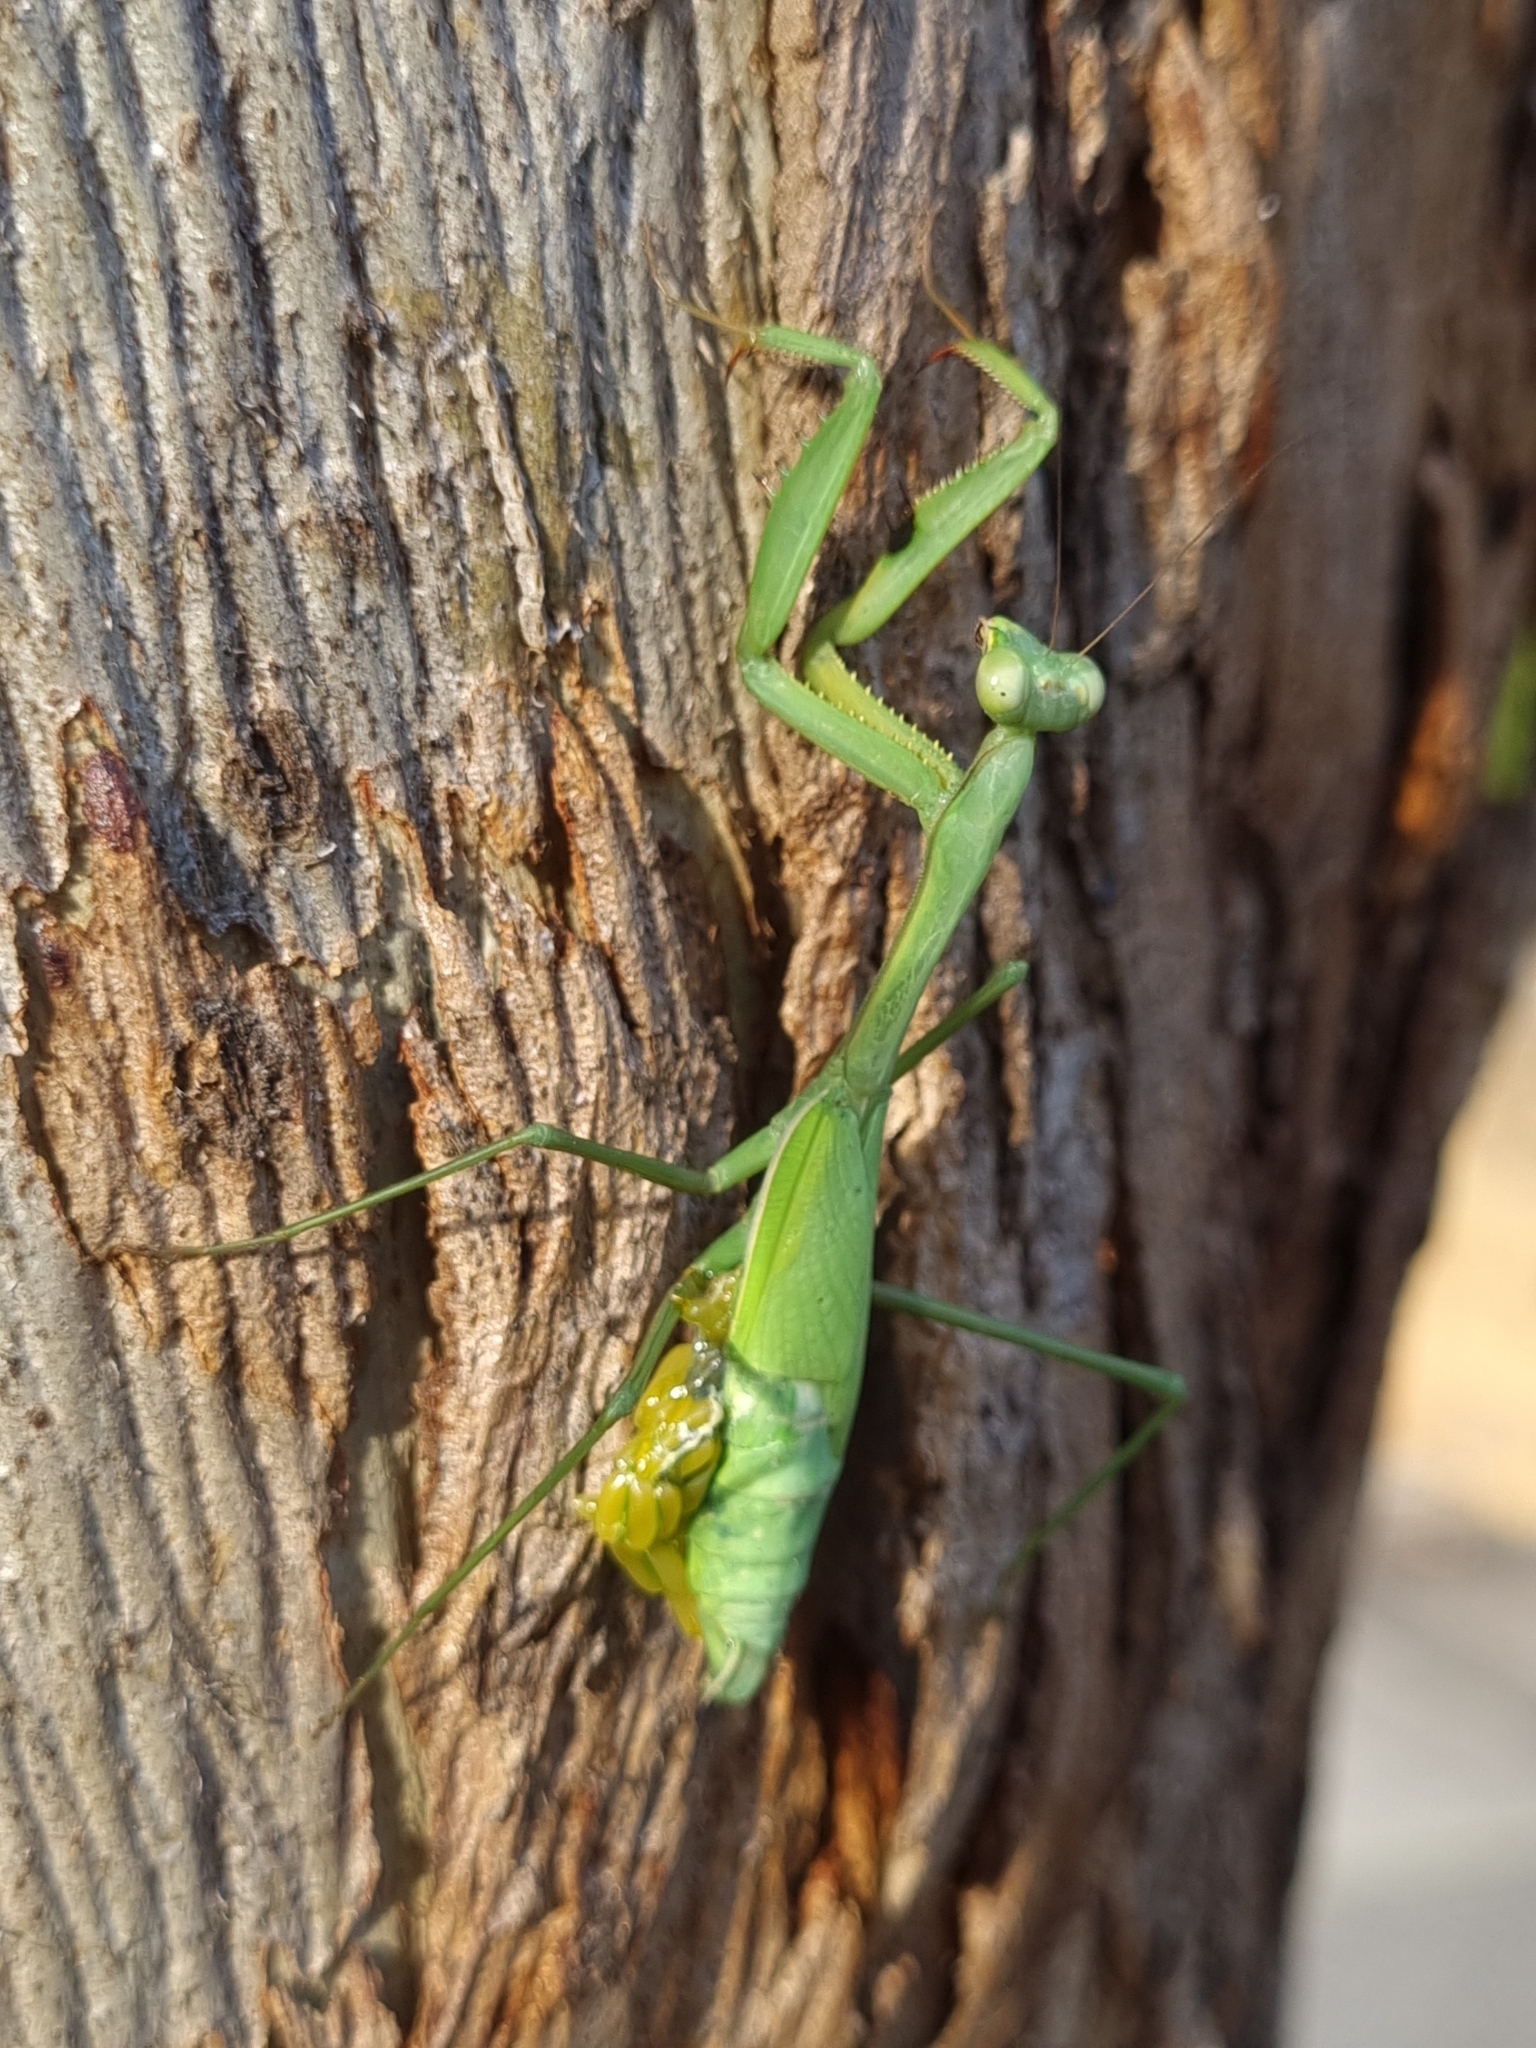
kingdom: Animalia
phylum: Arthropoda
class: Insecta
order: Mantodea
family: Mantidae
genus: Pseudomantis
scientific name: Pseudomantis albofimbriata
